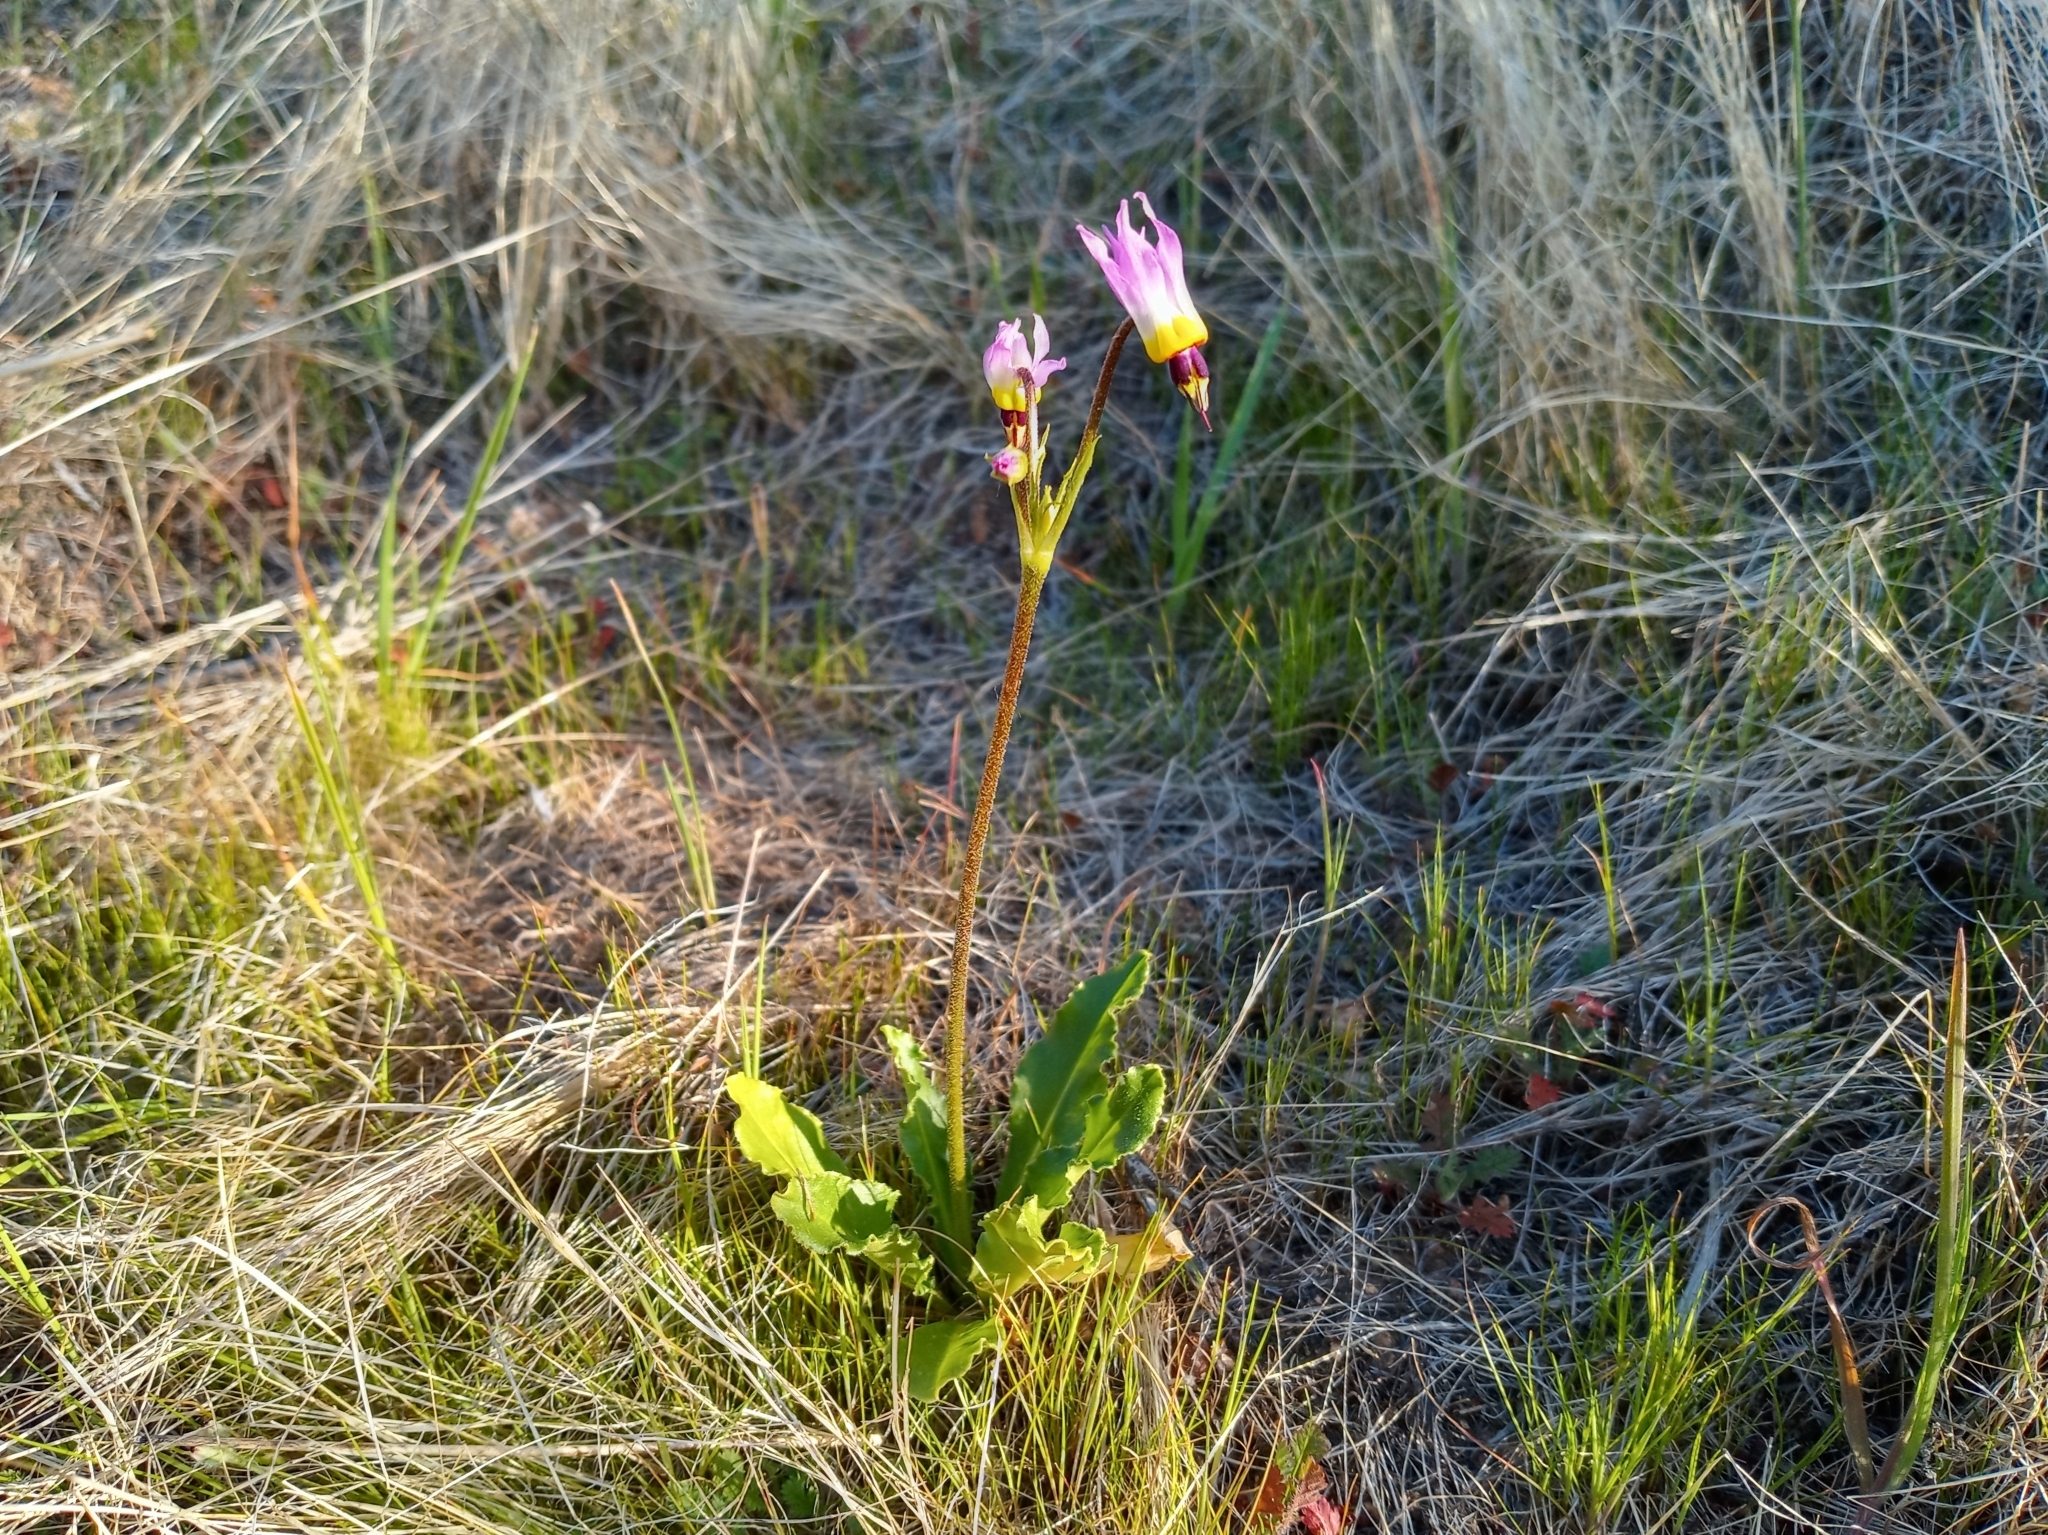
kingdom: Plantae
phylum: Tracheophyta
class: Magnoliopsida
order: Ericales
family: Primulaceae
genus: Dodecatheon
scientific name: Dodecatheon clevelandii
